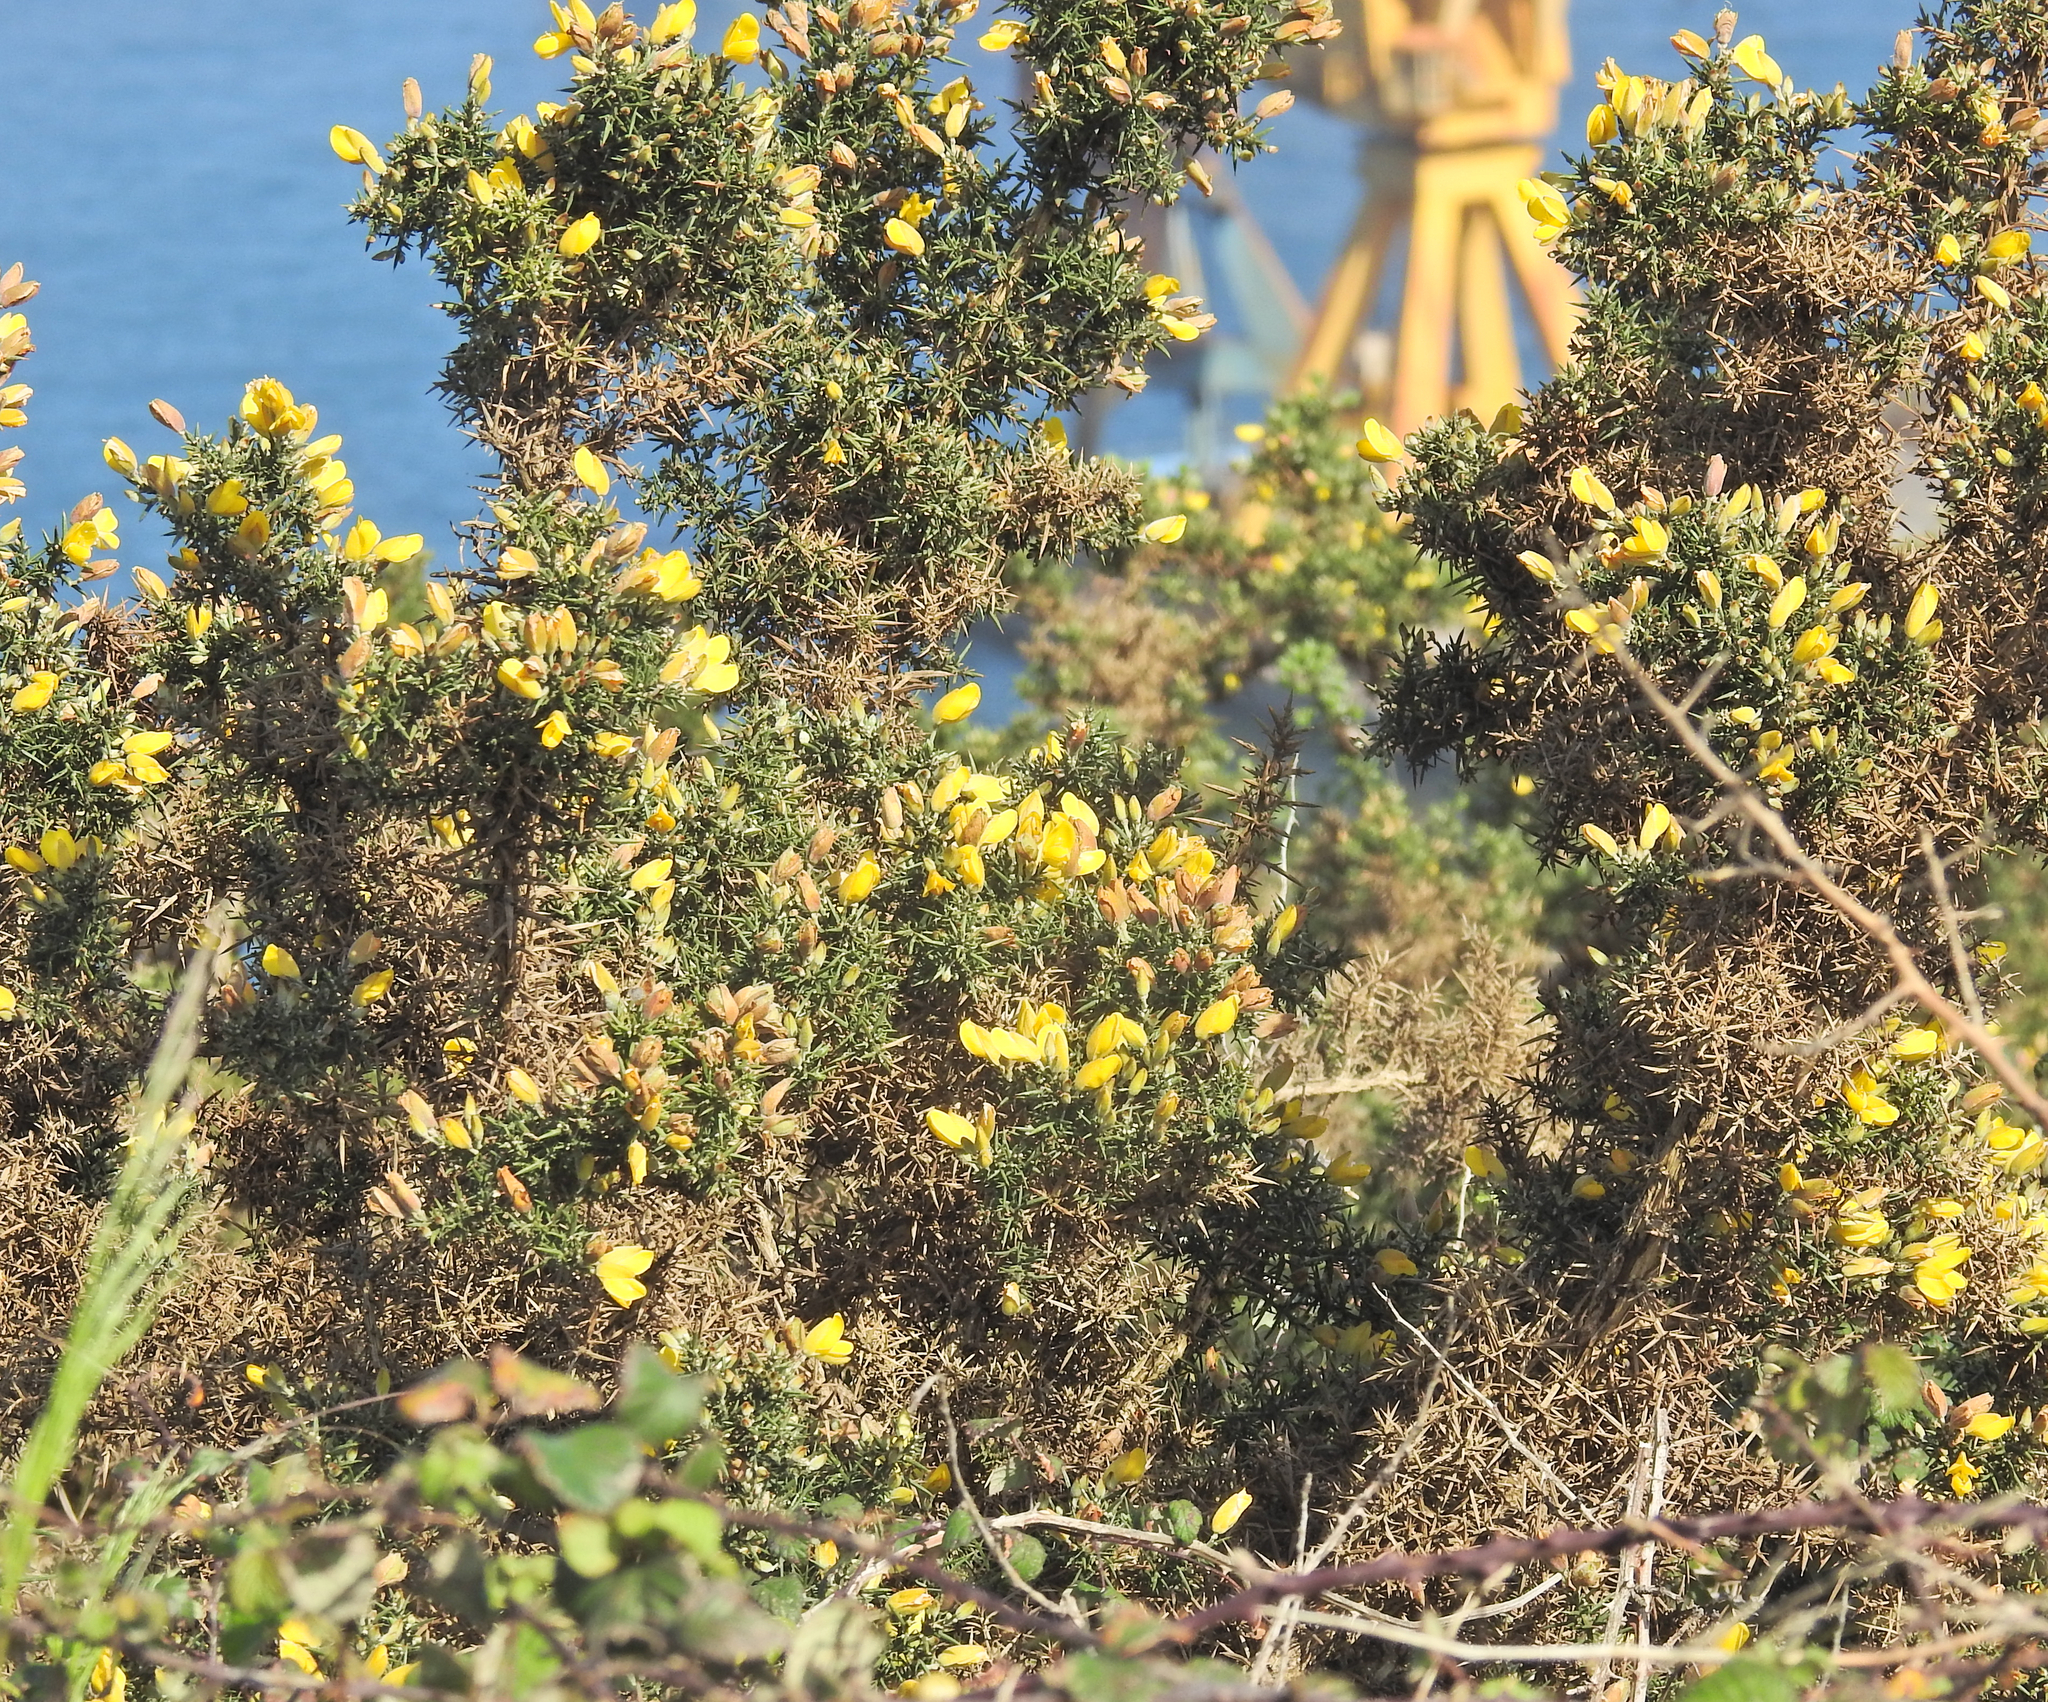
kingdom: Plantae
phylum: Tracheophyta
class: Magnoliopsida
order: Fabales
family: Fabaceae
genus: Ulex
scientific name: Ulex europaeus
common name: Common gorse
